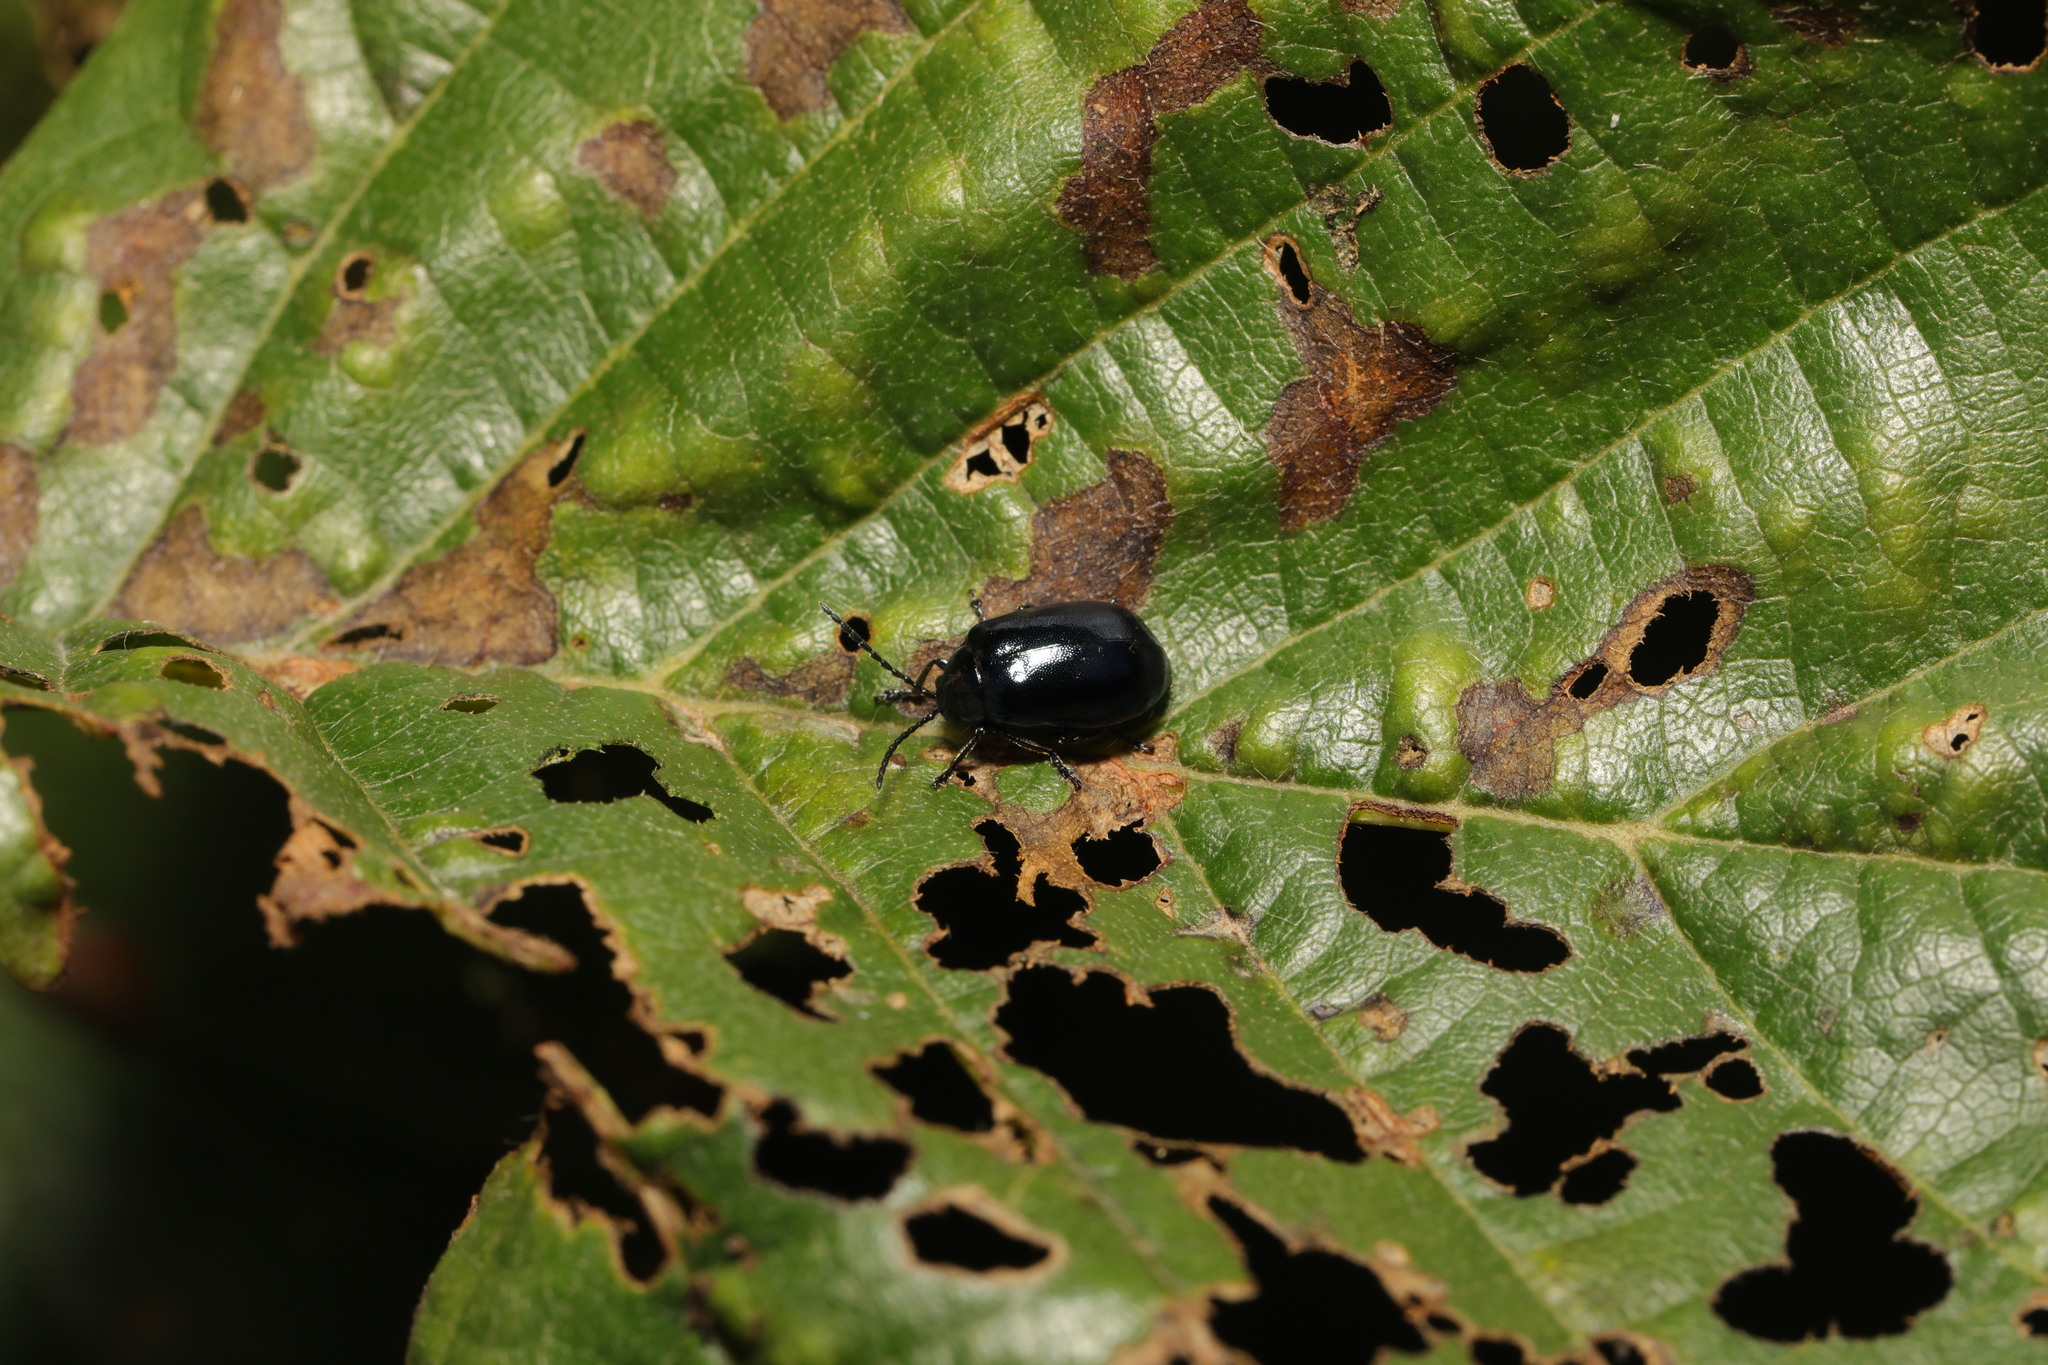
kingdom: Animalia
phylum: Arthropoda
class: Insecta
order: Coleoptera
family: Chrysomelidae
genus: Agelastica
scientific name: Agelastica alni
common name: Alder leaf beetle
